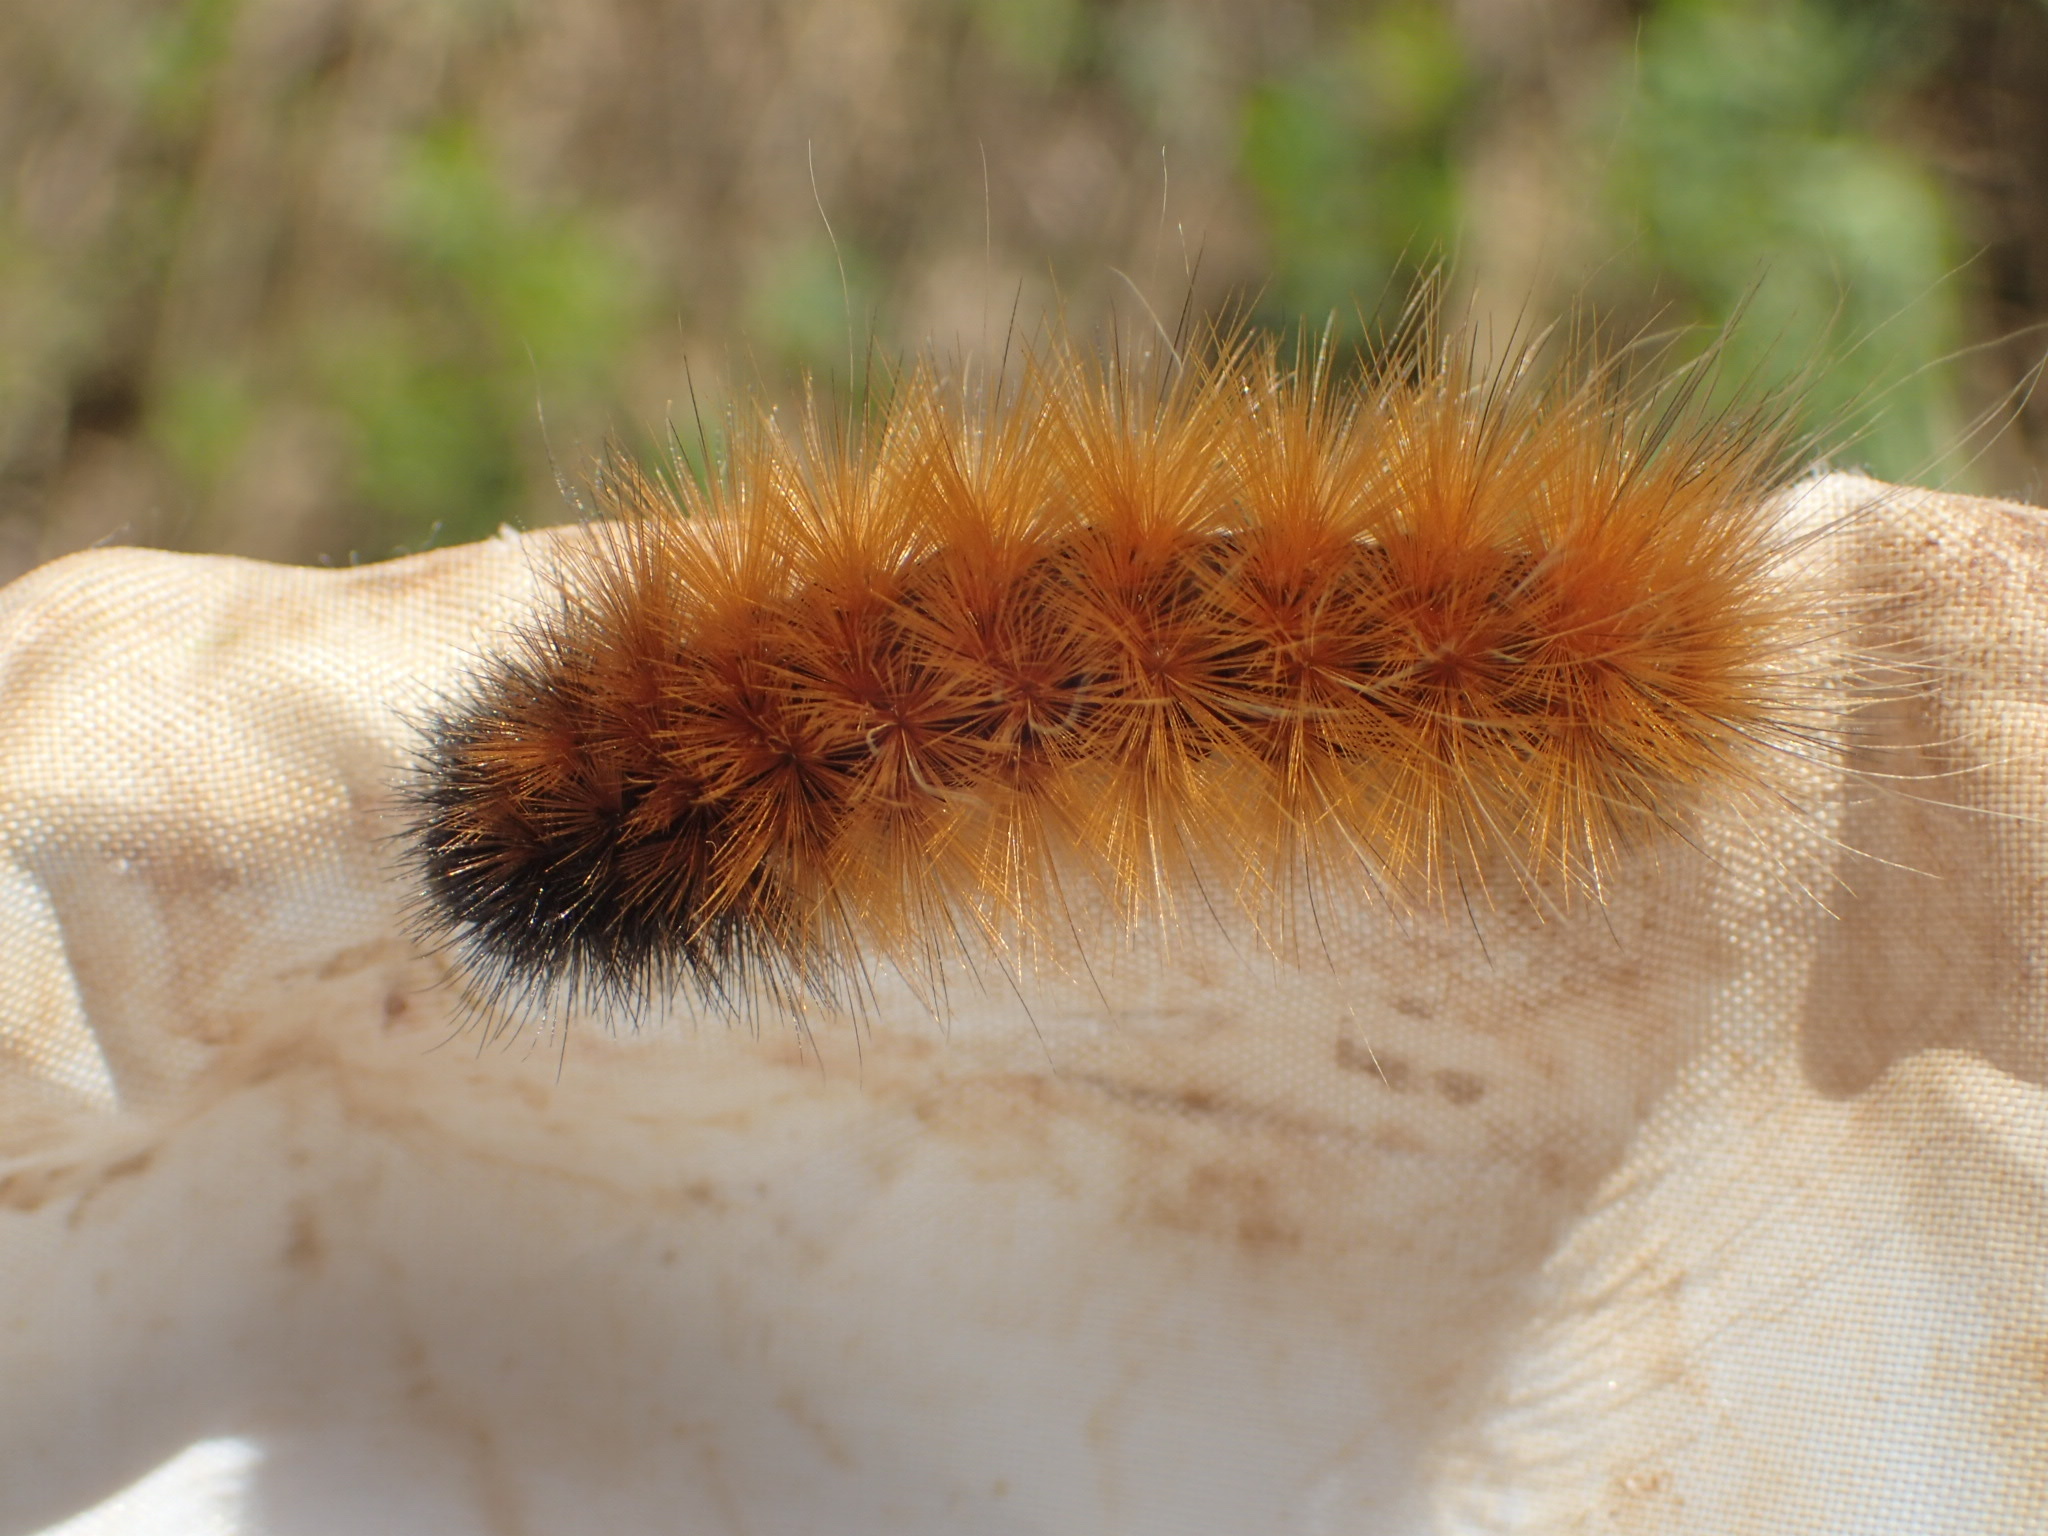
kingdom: Animalia
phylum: Arthropoda
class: Insecta
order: Lepidoptera
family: Erebidae
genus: Spilosoma
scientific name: Spilosoma virginica
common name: Virginia tiger moth
